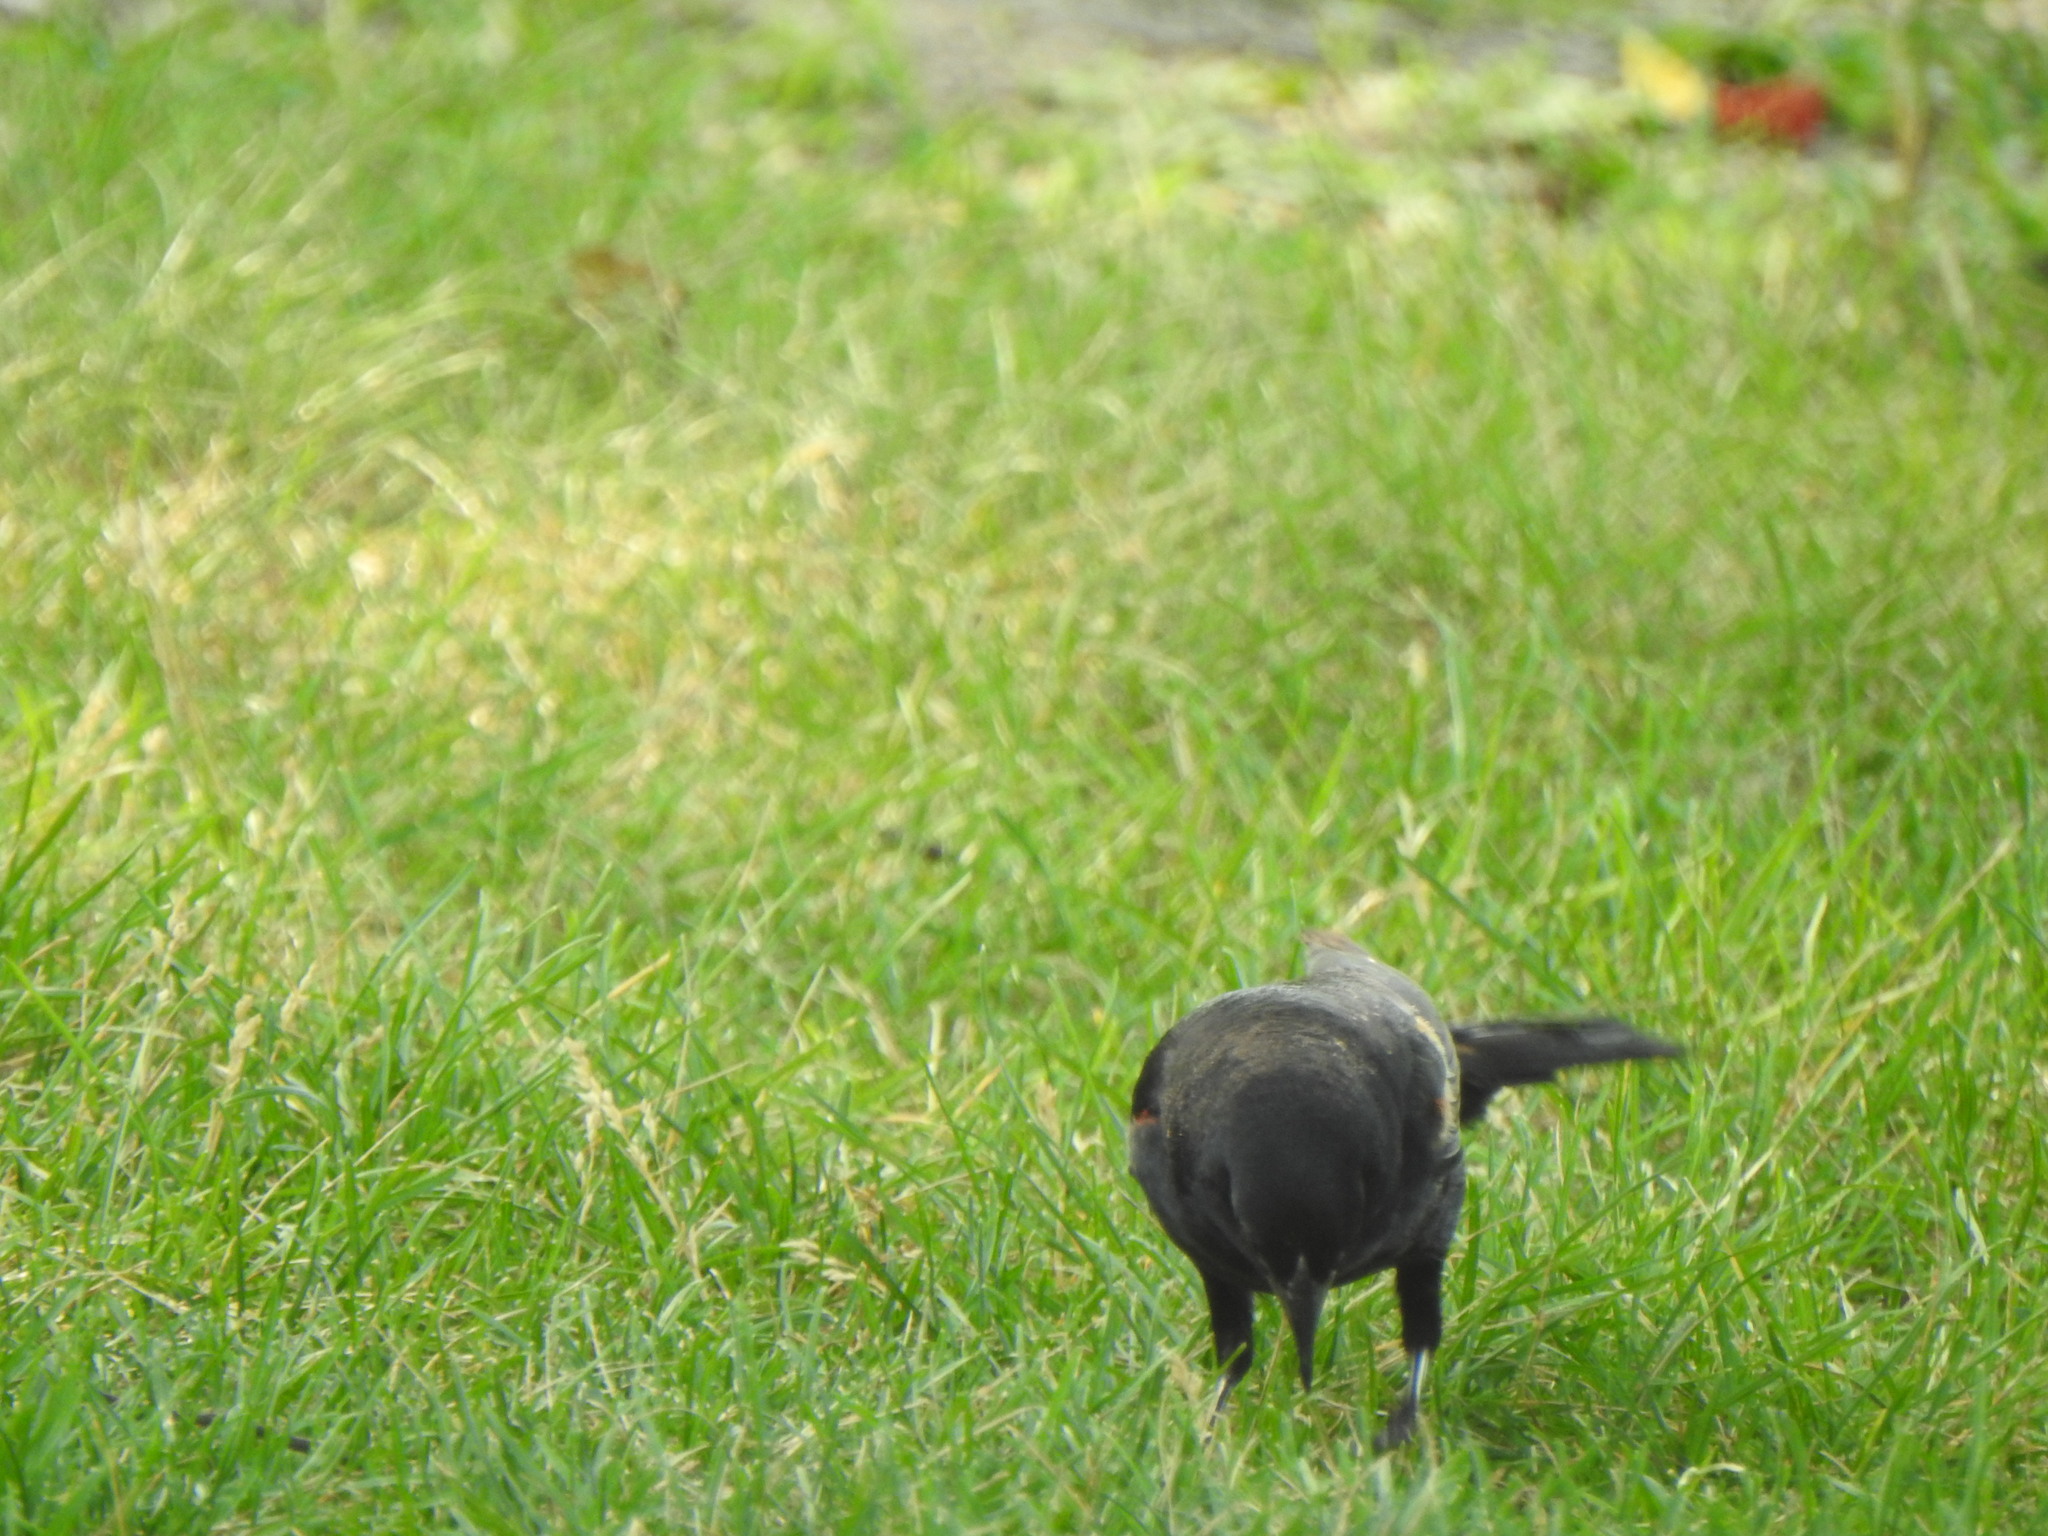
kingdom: Animalia
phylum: Chordata
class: Aves
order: Passeriformes
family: Icteridae
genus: Agelaius
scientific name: Agelaius phoeniceus
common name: Red-winged blackbird
